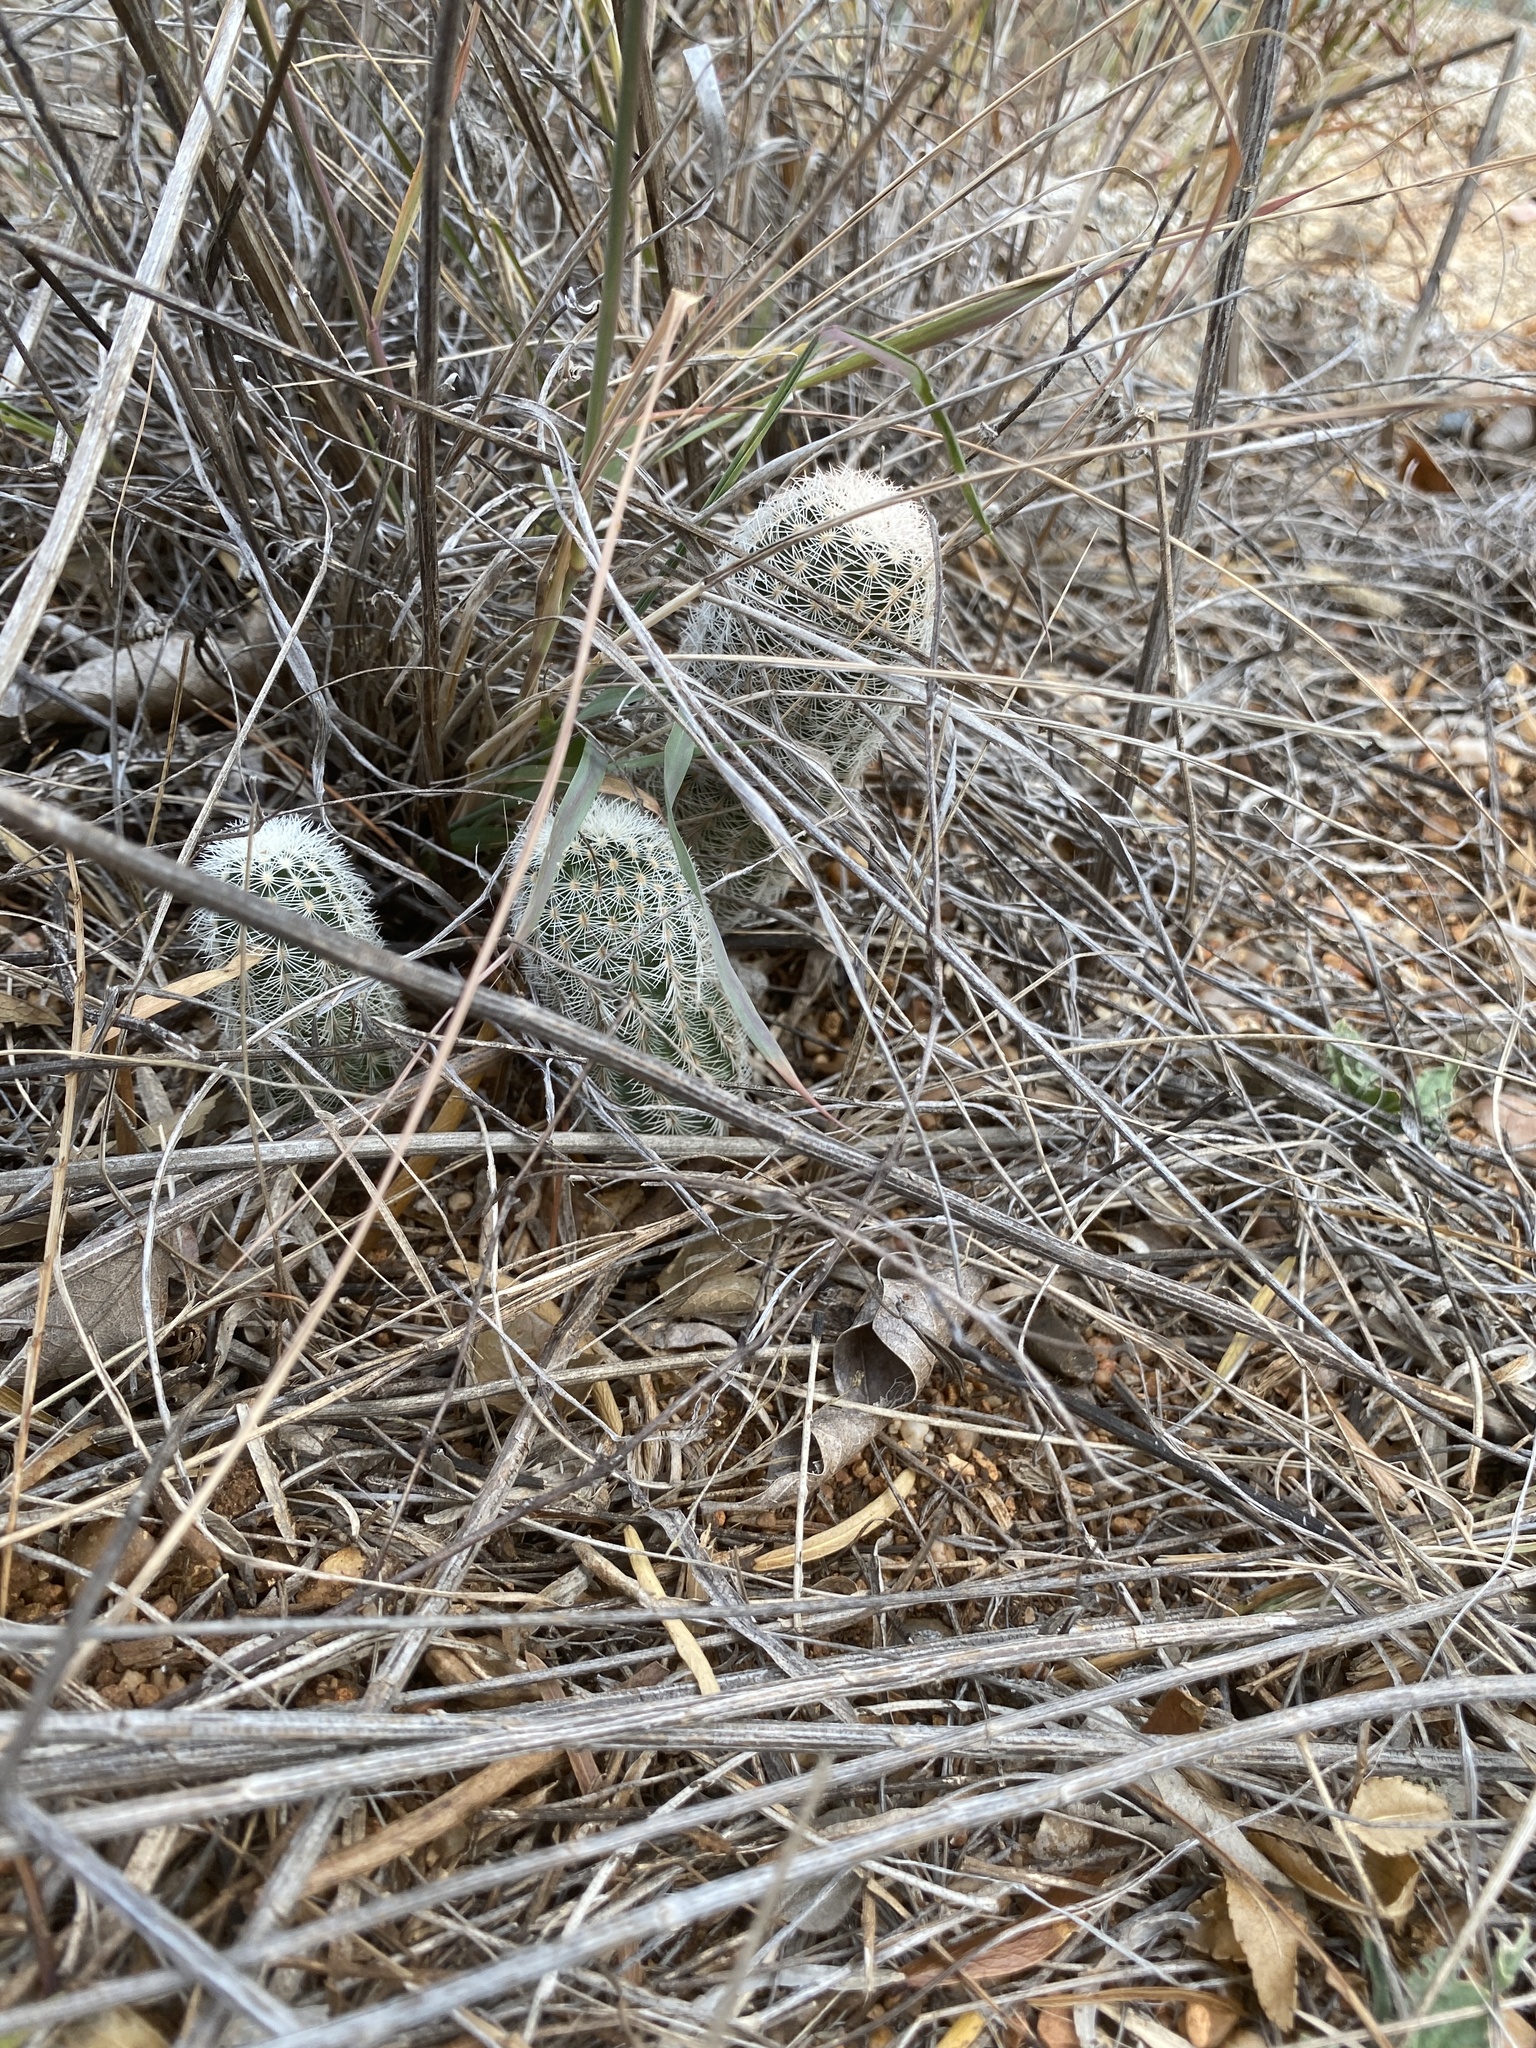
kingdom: Plantae
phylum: Tracheophyta
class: Magnoliopsida
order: Caryophyllales
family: Cactaceae
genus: Echinocereus
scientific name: Echinocereus reichenbachii
